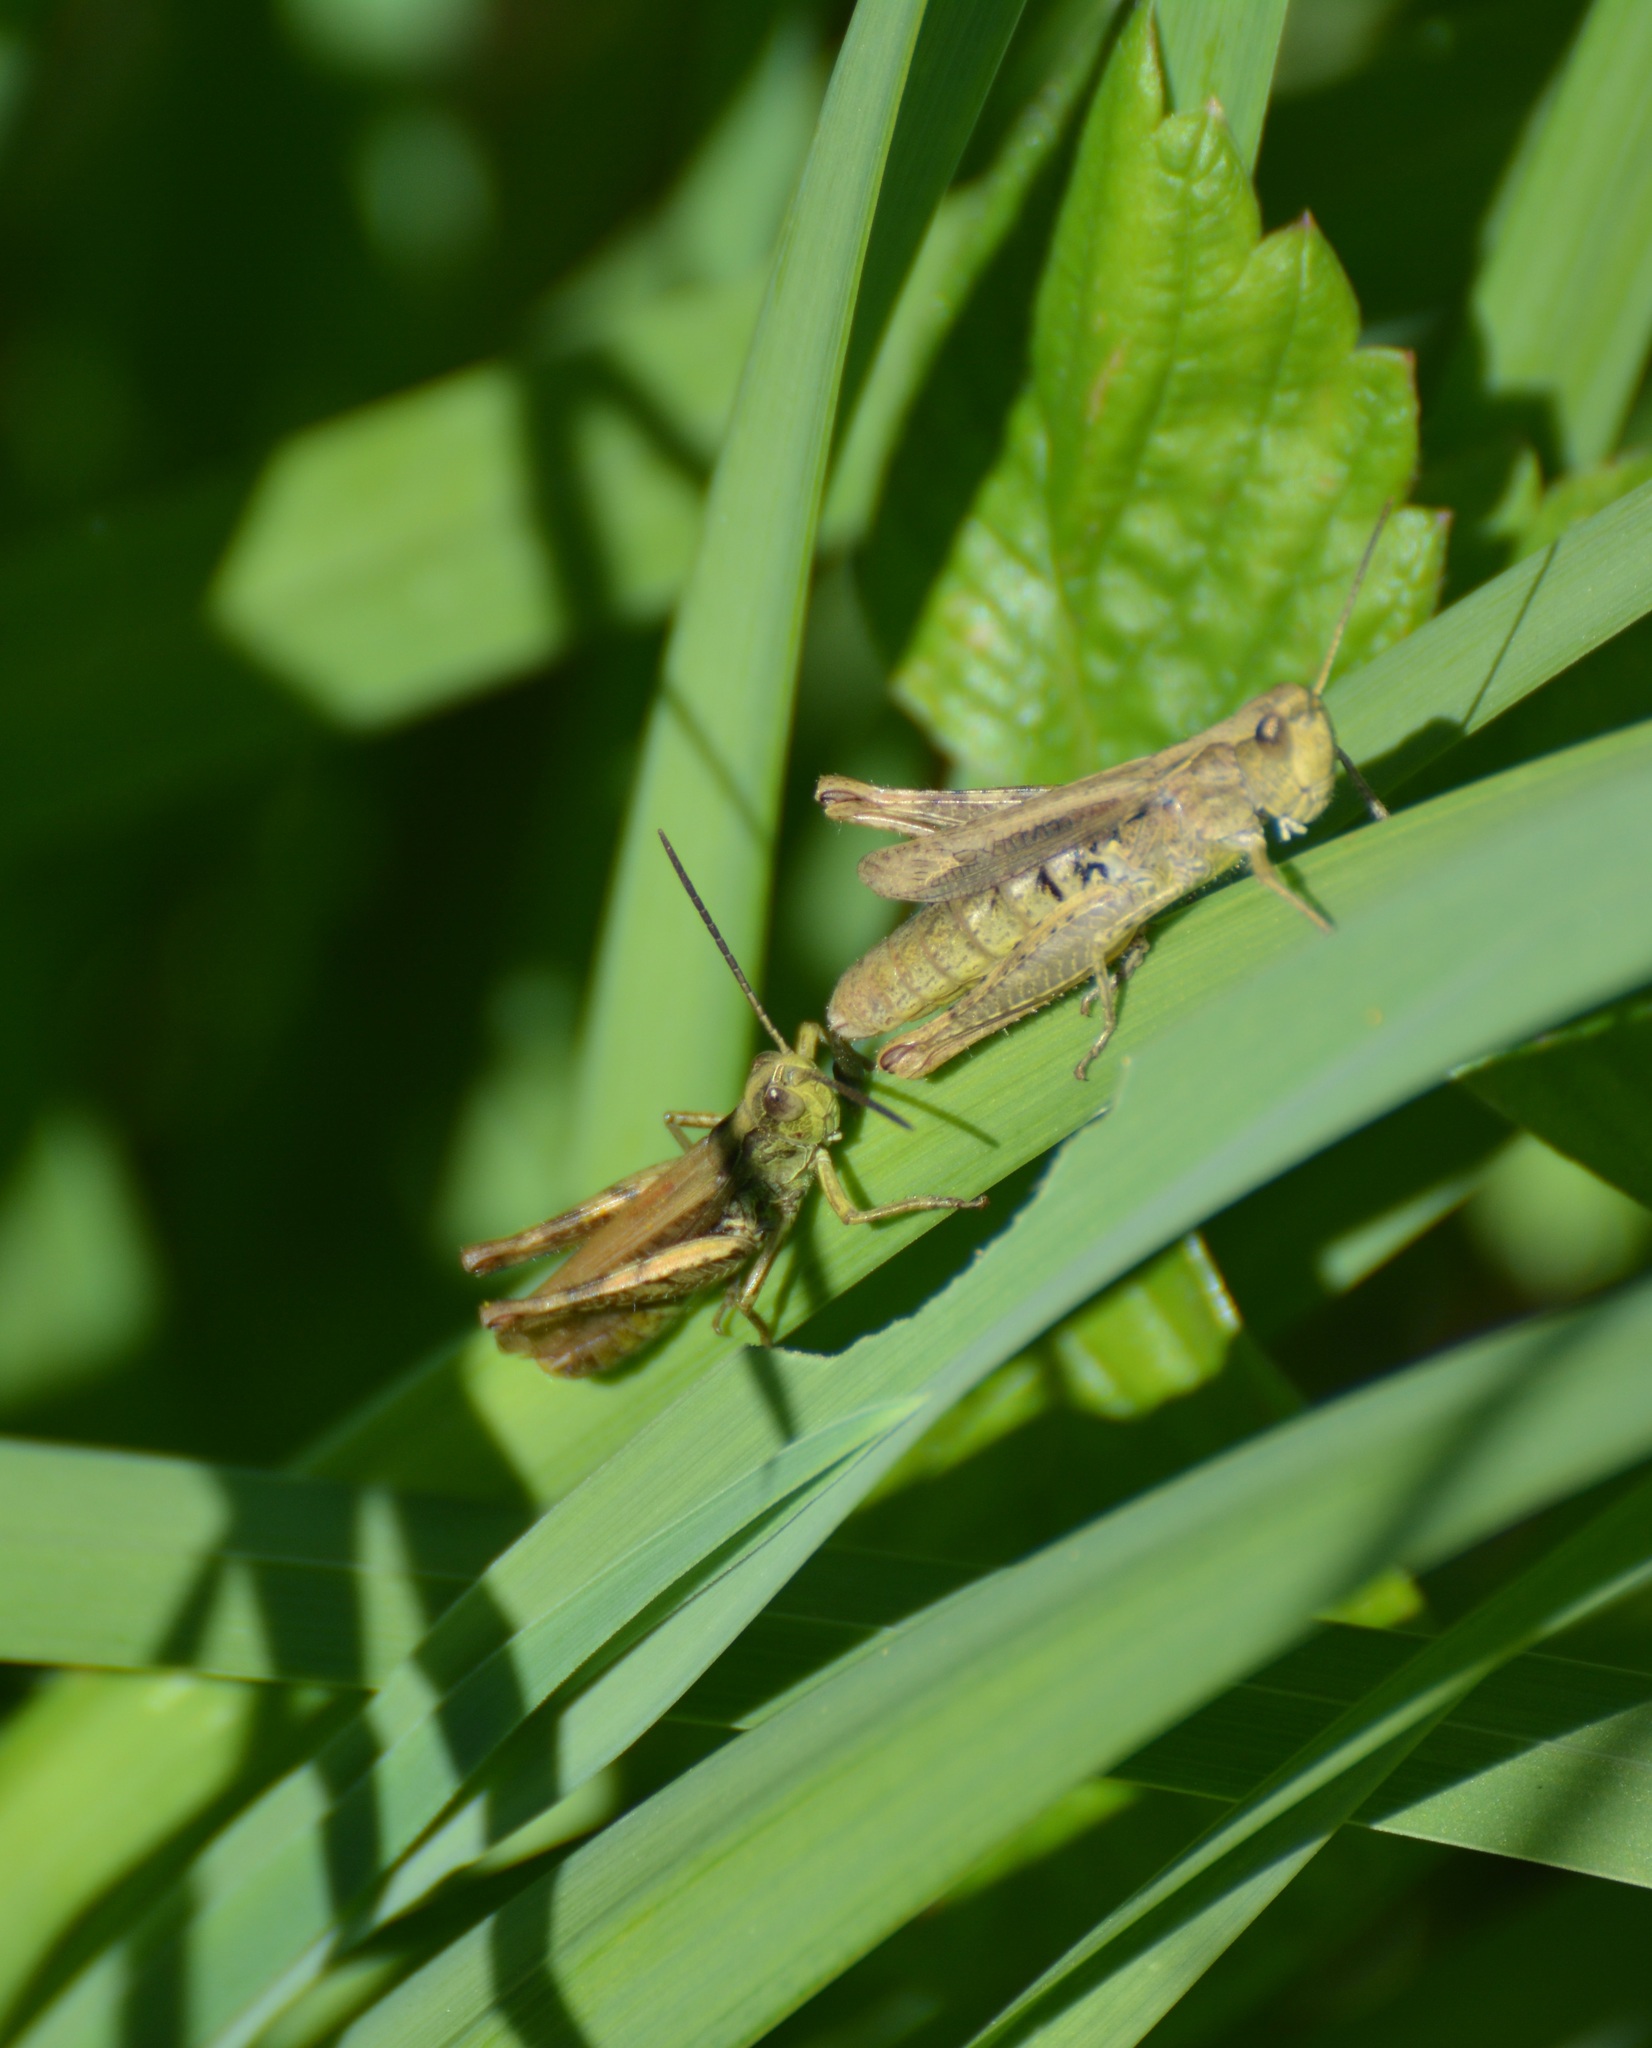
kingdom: Animalia
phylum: Arthropoda
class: Insecta
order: Orthoptera
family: Acrididae
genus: Chorthippus
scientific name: Chorthippus apricarius
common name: Upland field grasshopper
